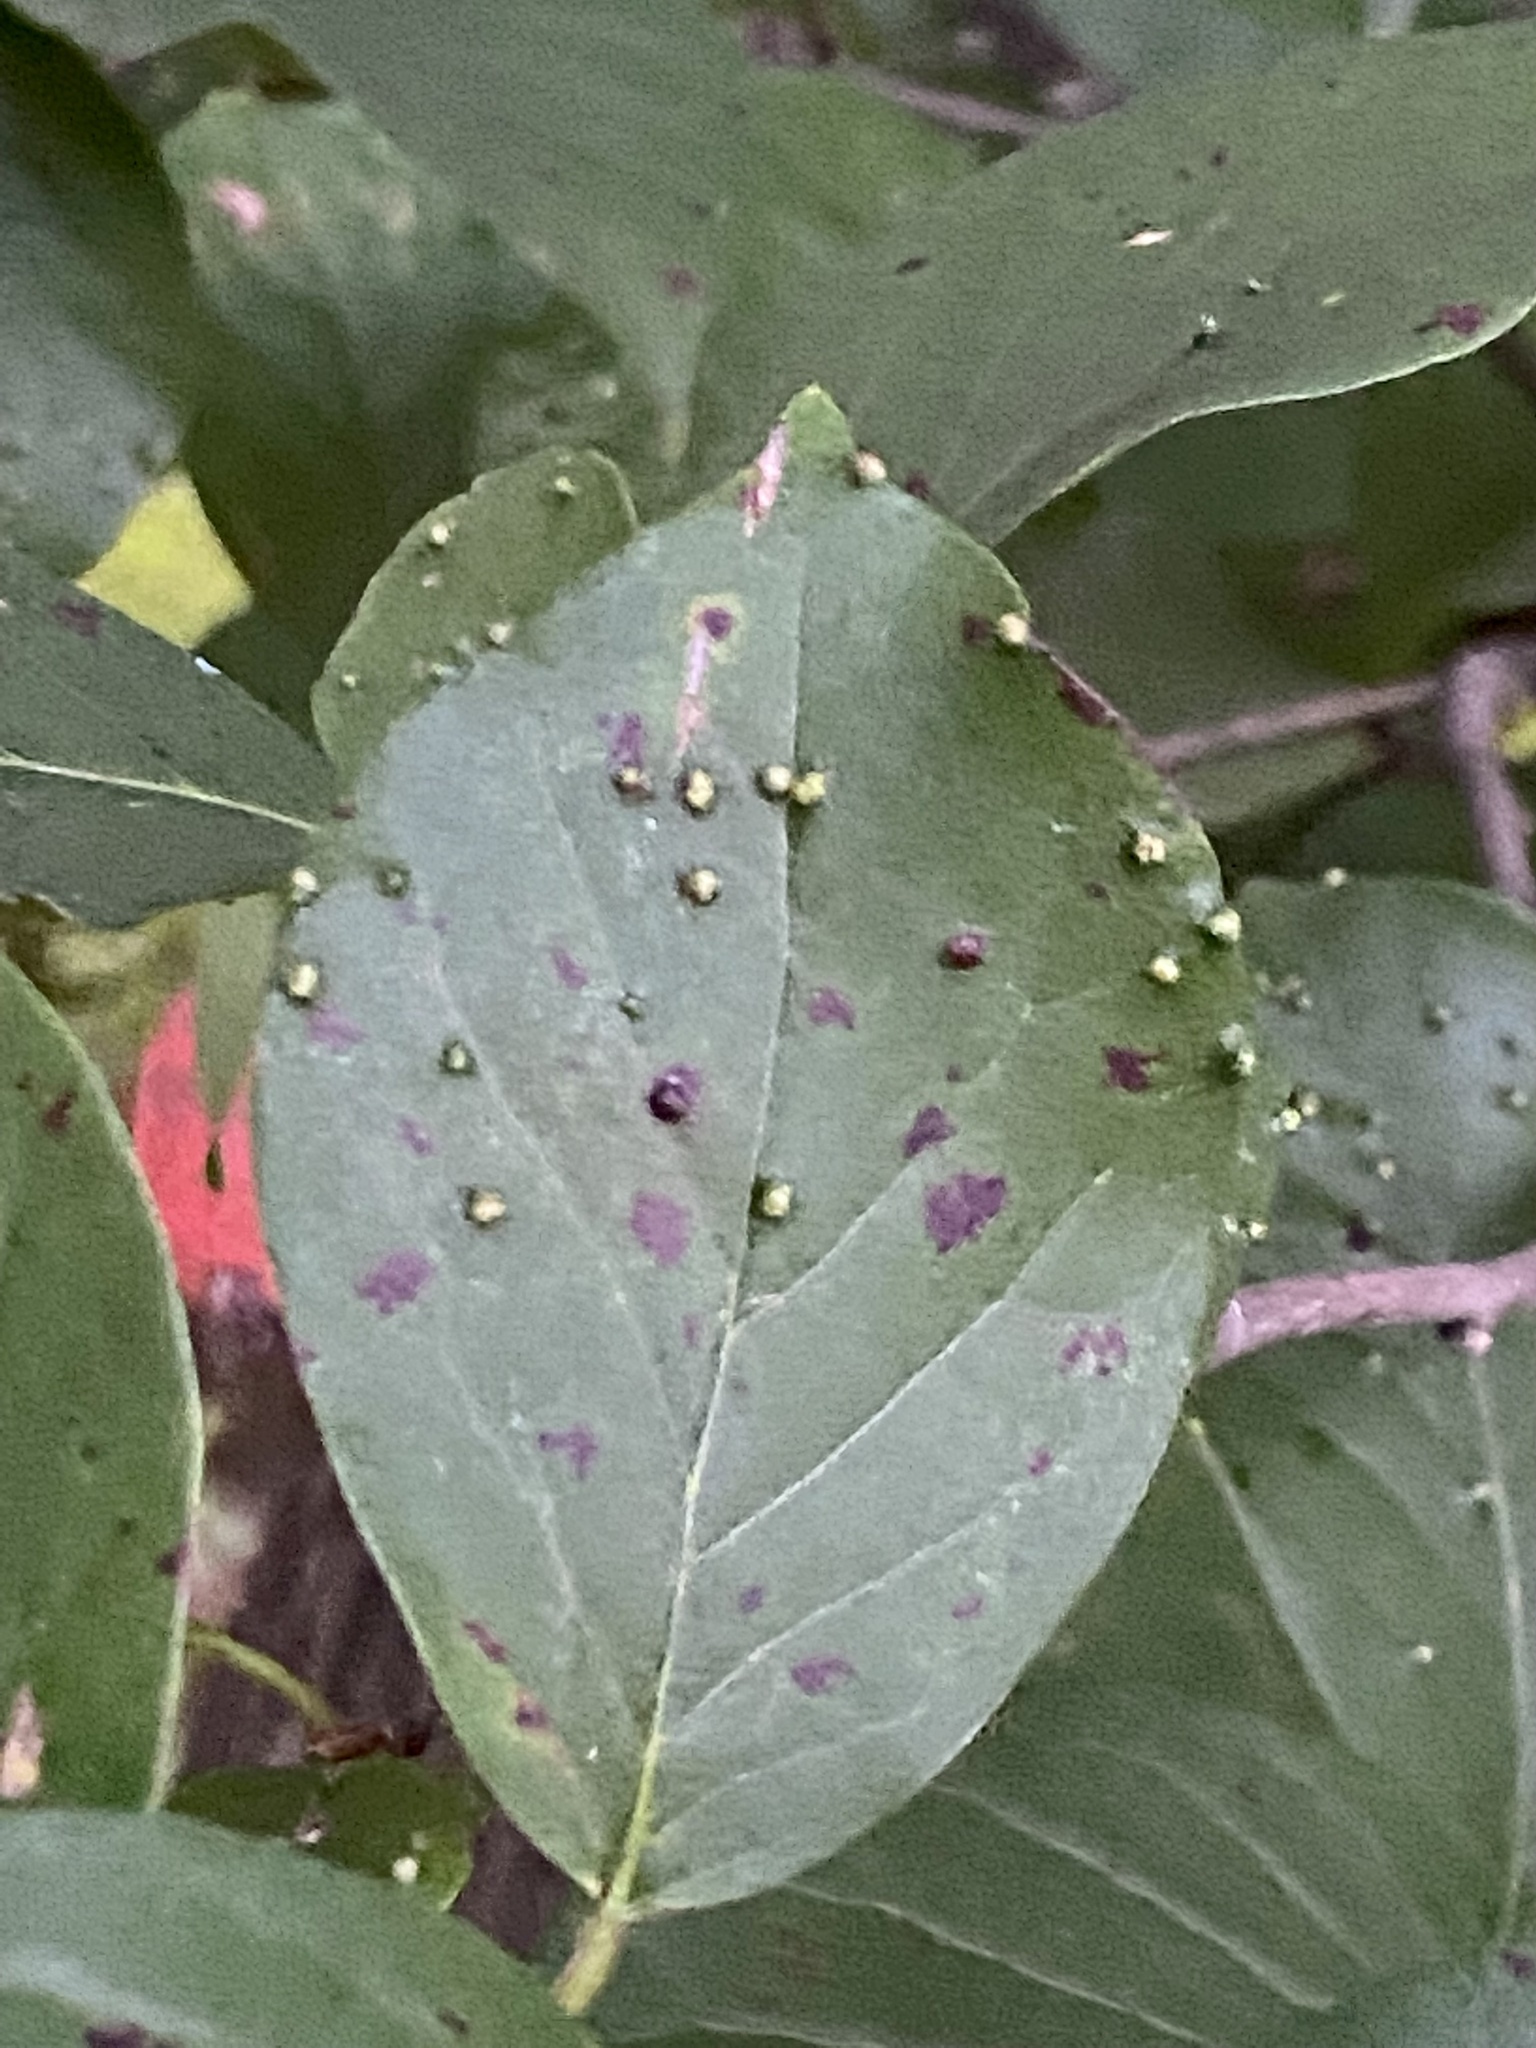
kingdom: Animalia
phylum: Arthropoda
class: Arachnida
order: Trombidiformes
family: Eriophyidae
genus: Aceria
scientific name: Aceria
